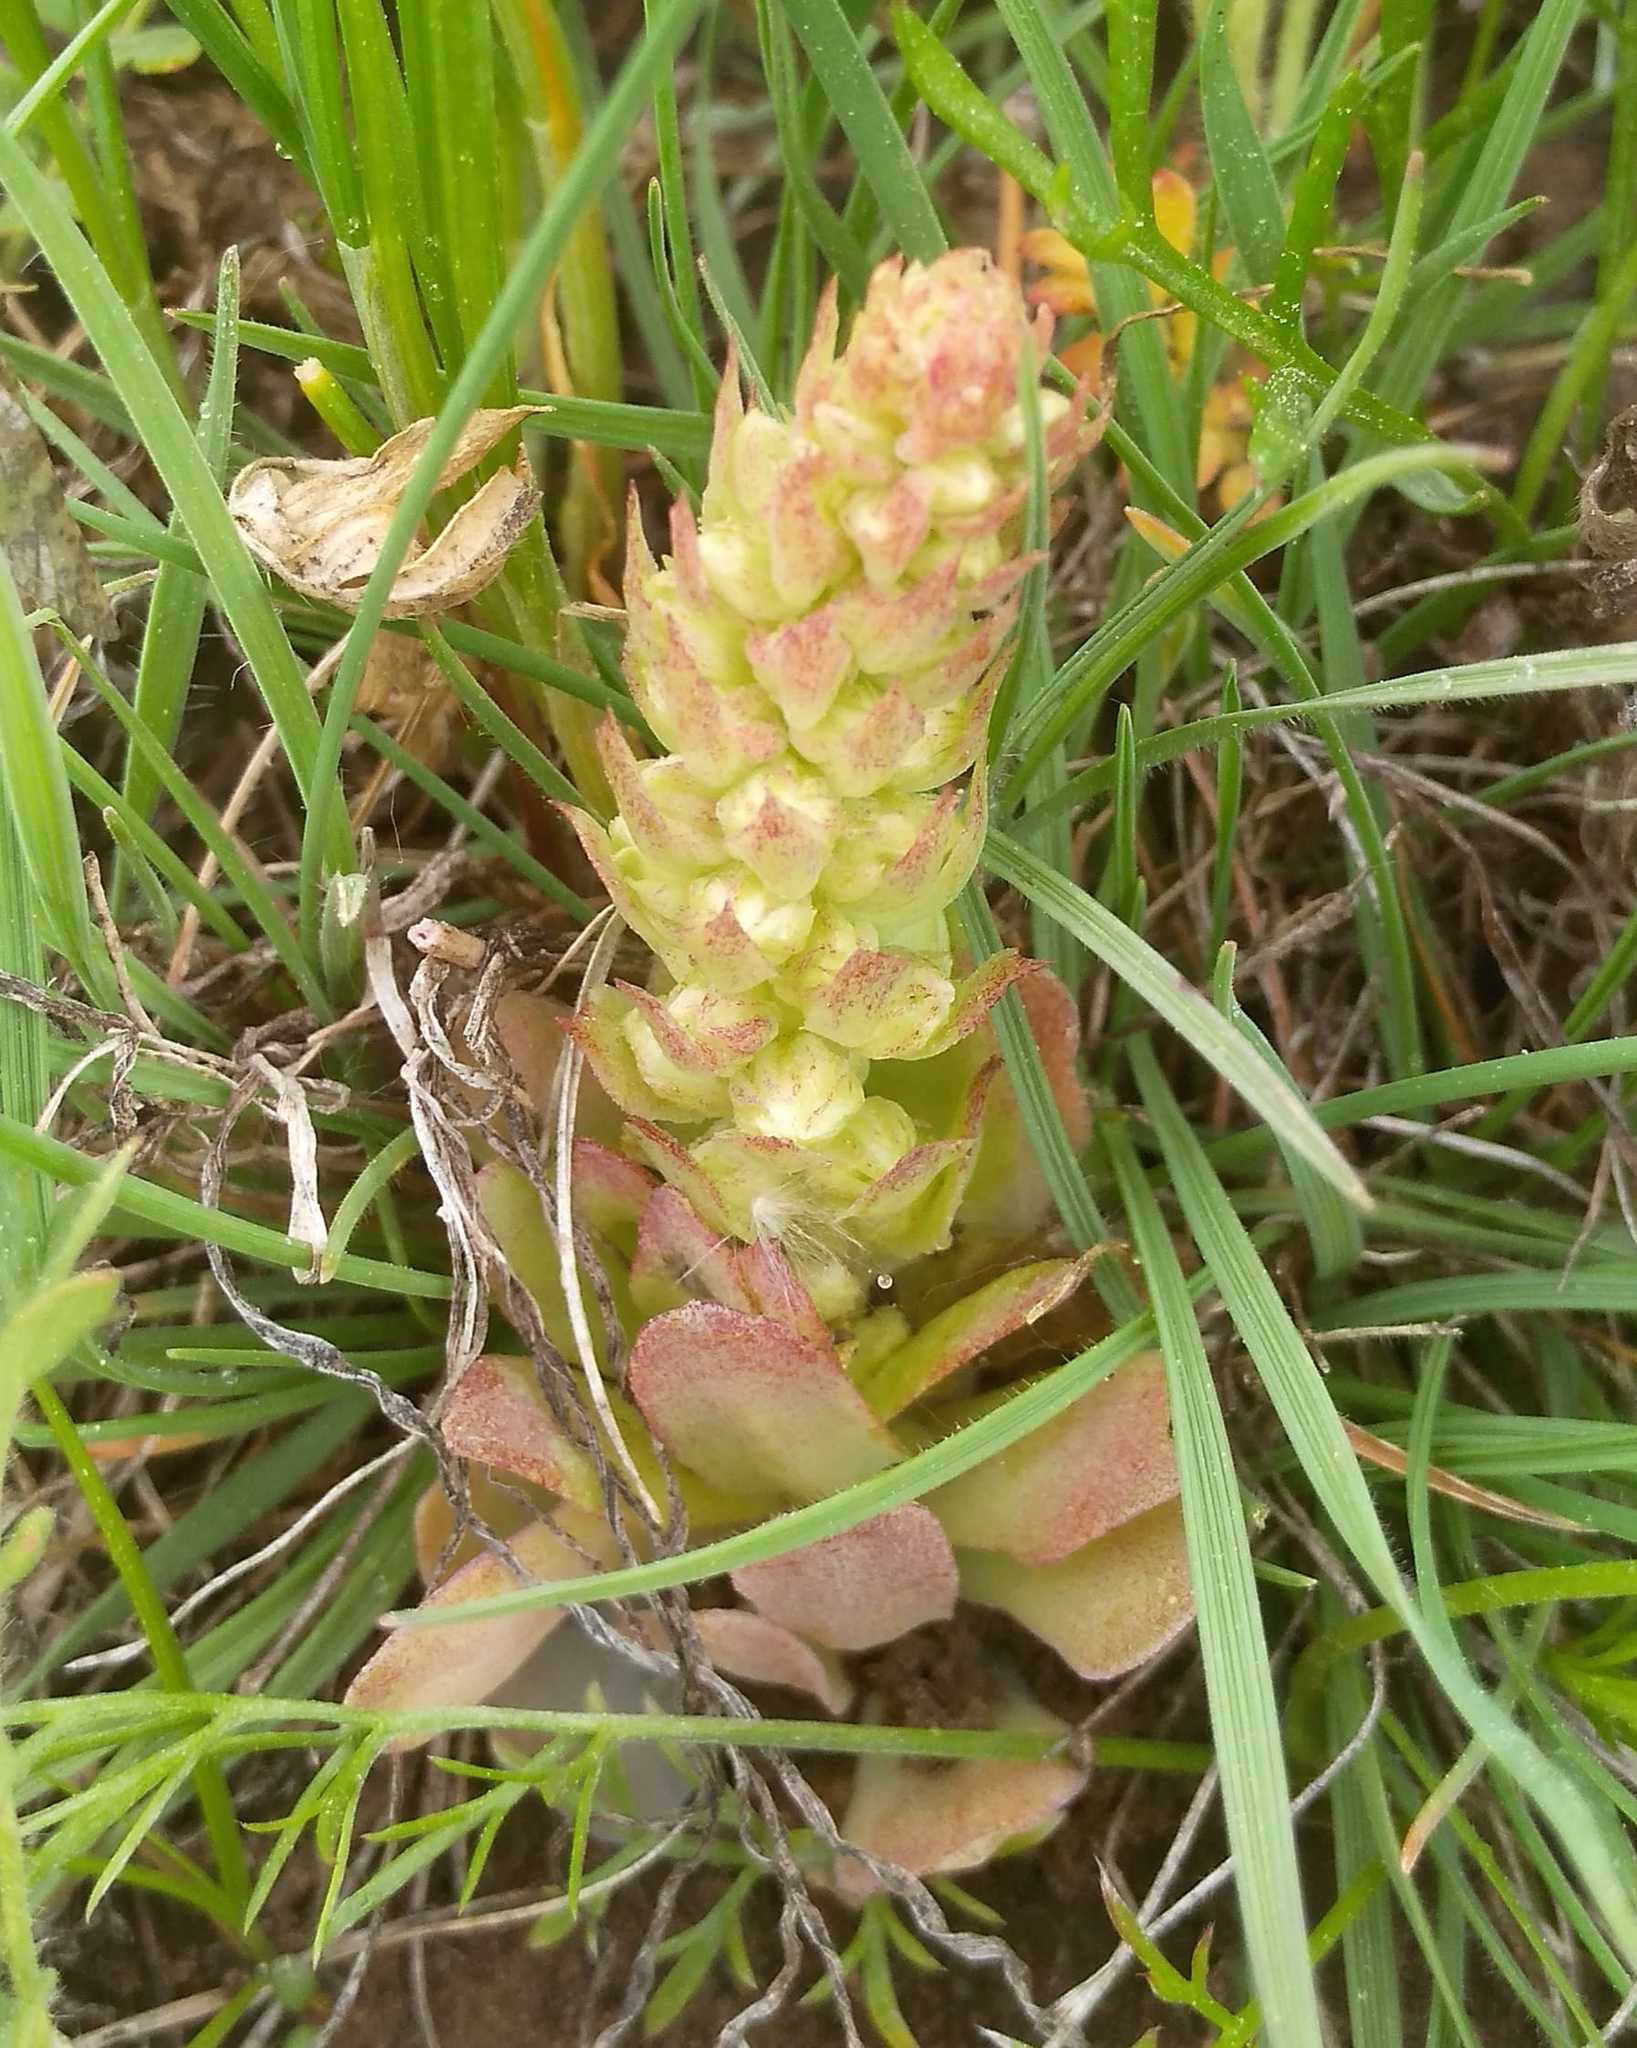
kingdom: Plantae
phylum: Tracheophyta
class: Magnoliopsida
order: Saxifragales
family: Crassulaceae
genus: Orostachys
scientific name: Orostachys malacophylla
